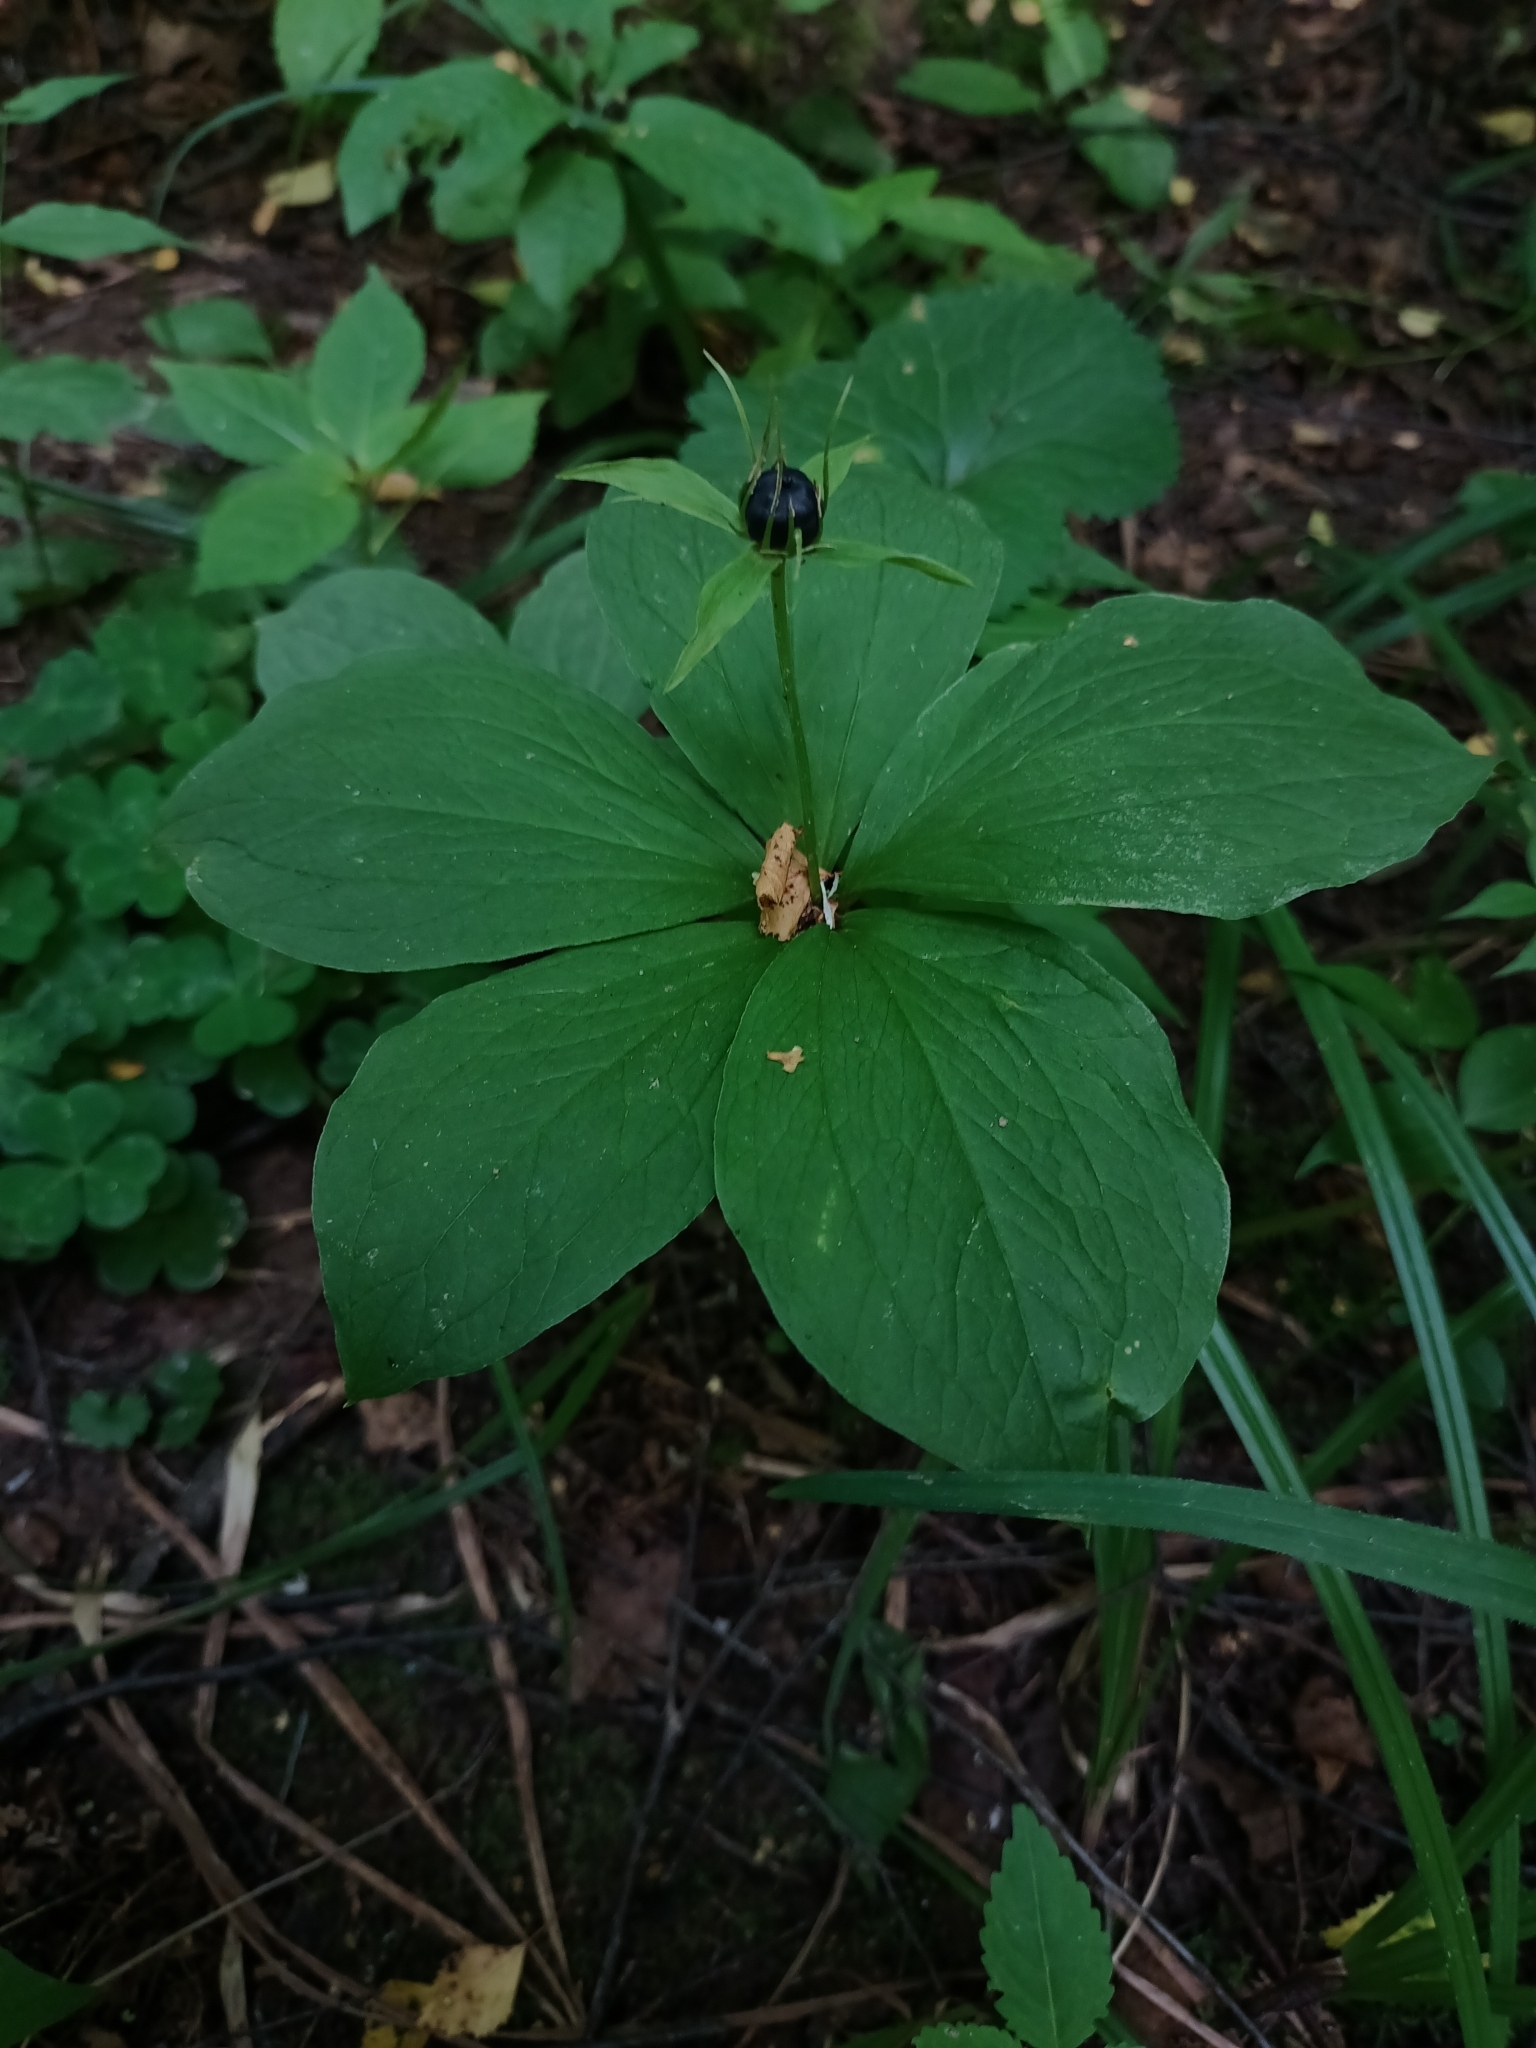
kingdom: Plantae
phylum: Tracheophyta
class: Liliopsida
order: Liliales
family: Melanthiaceae
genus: Paris
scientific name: Paris quadrifolia
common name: Herb-paris
